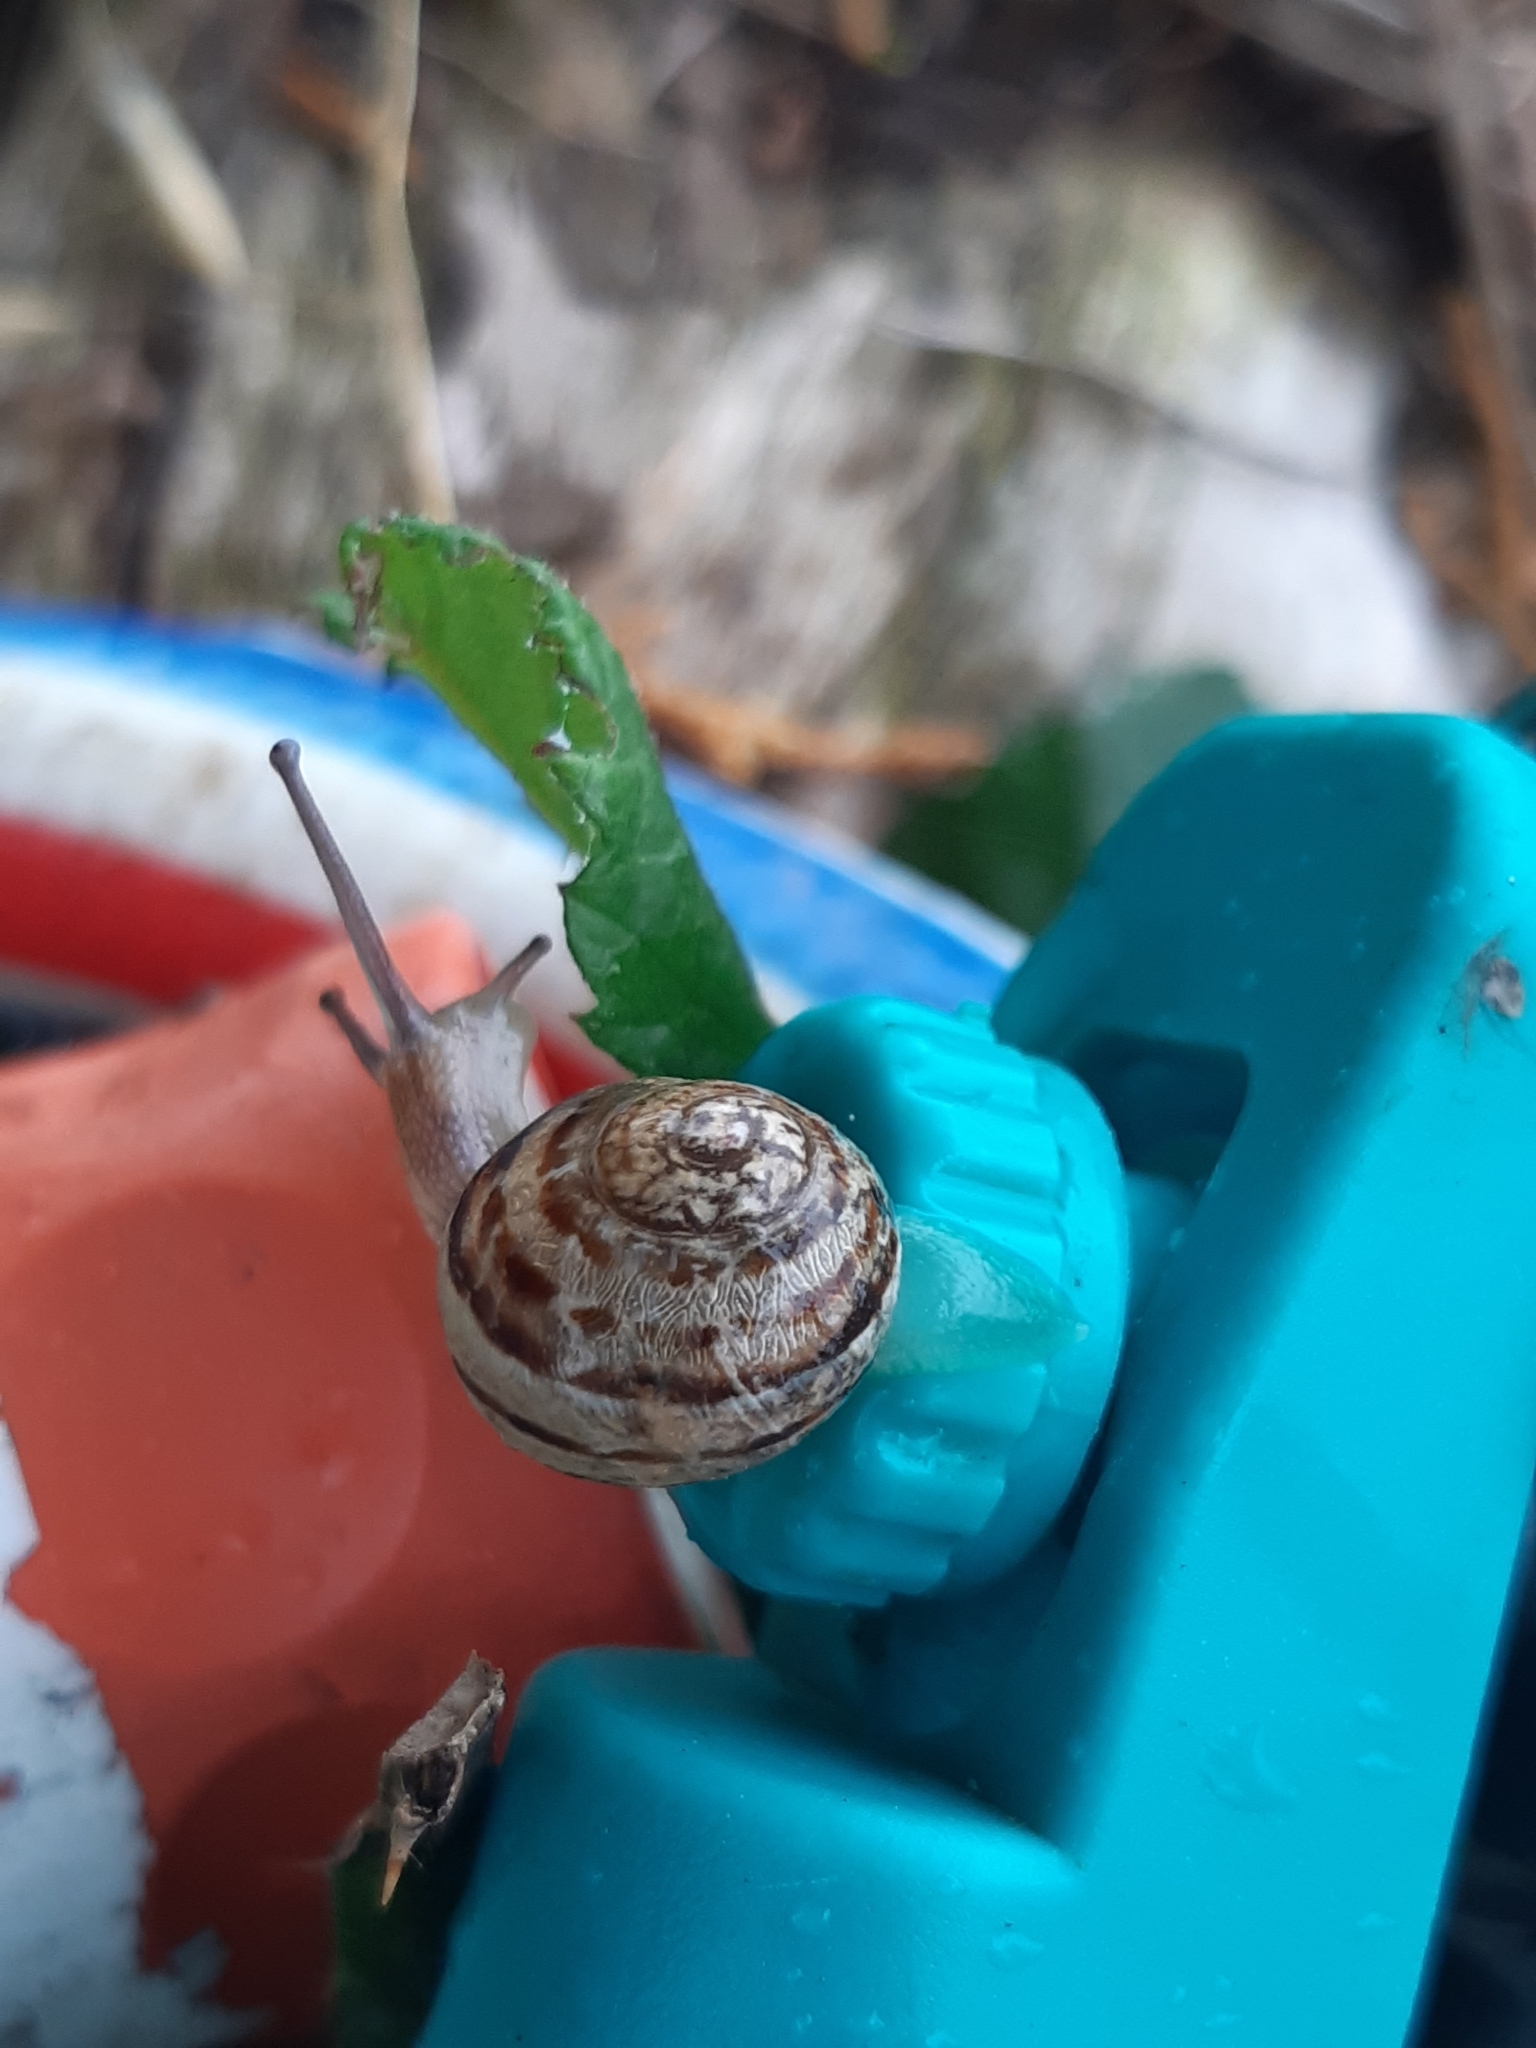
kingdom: Animalia
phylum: Mollusca
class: Gastropoda
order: Stylommatophora
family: Helicidae
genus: Cornu
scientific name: Cornu aspersum
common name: Brown garden snail
